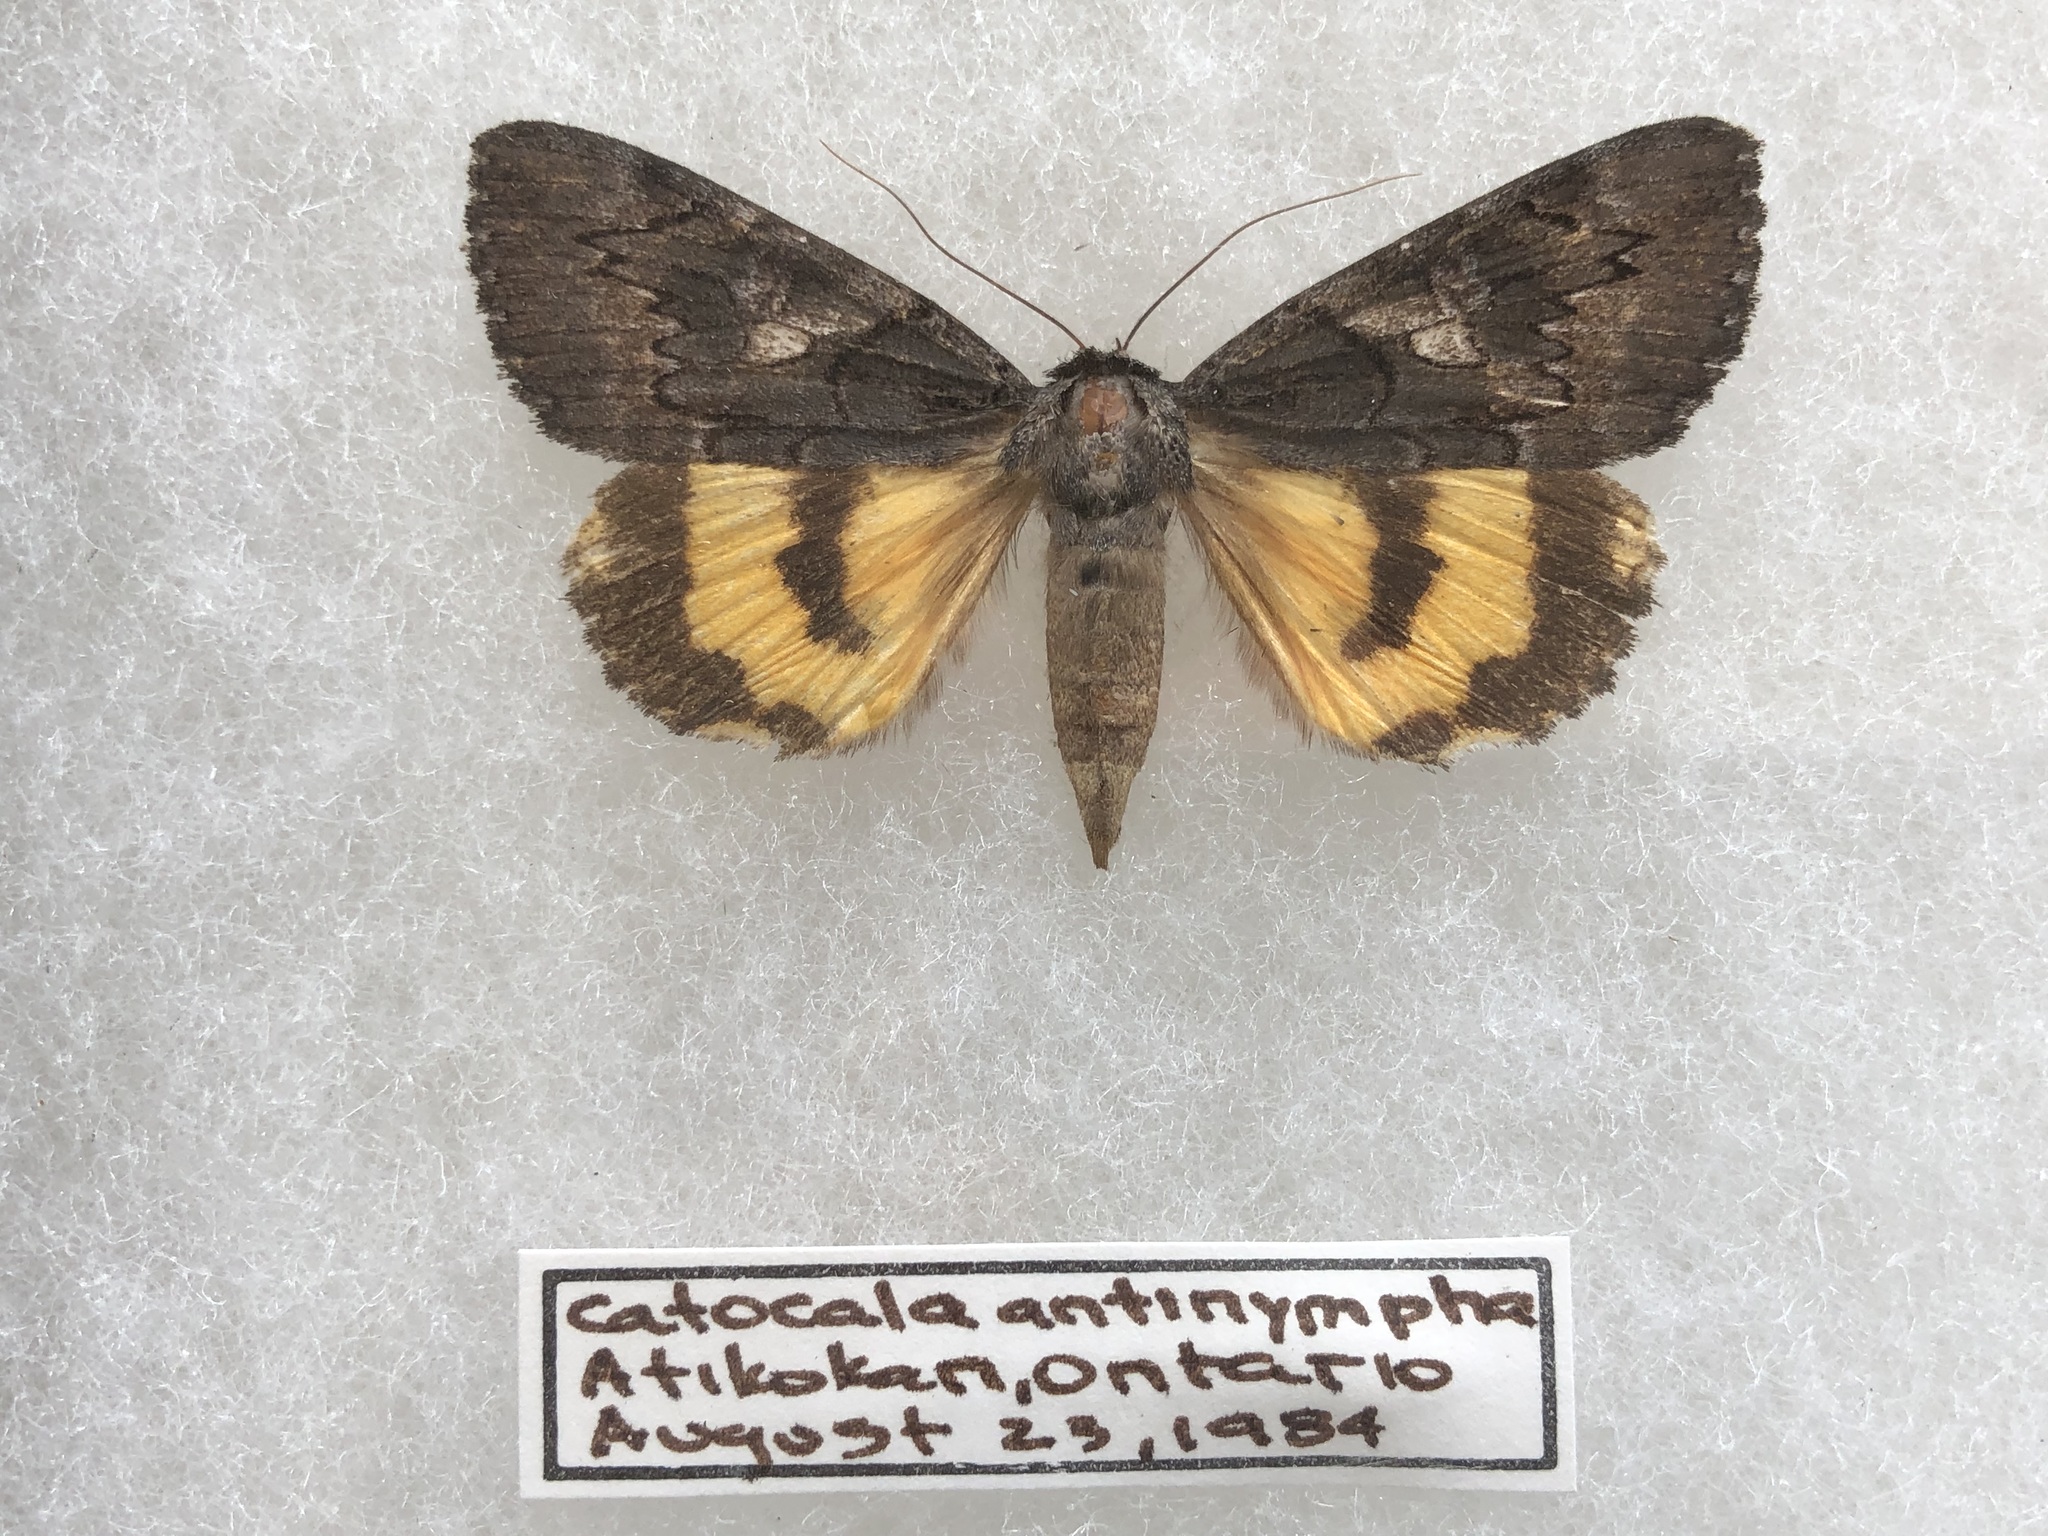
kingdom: Animalia
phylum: Arthropoda
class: Insecta
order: Lepidoptera
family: Erebidae
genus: Catocala
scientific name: Catocala antinympha
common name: Sweetfern underwing
